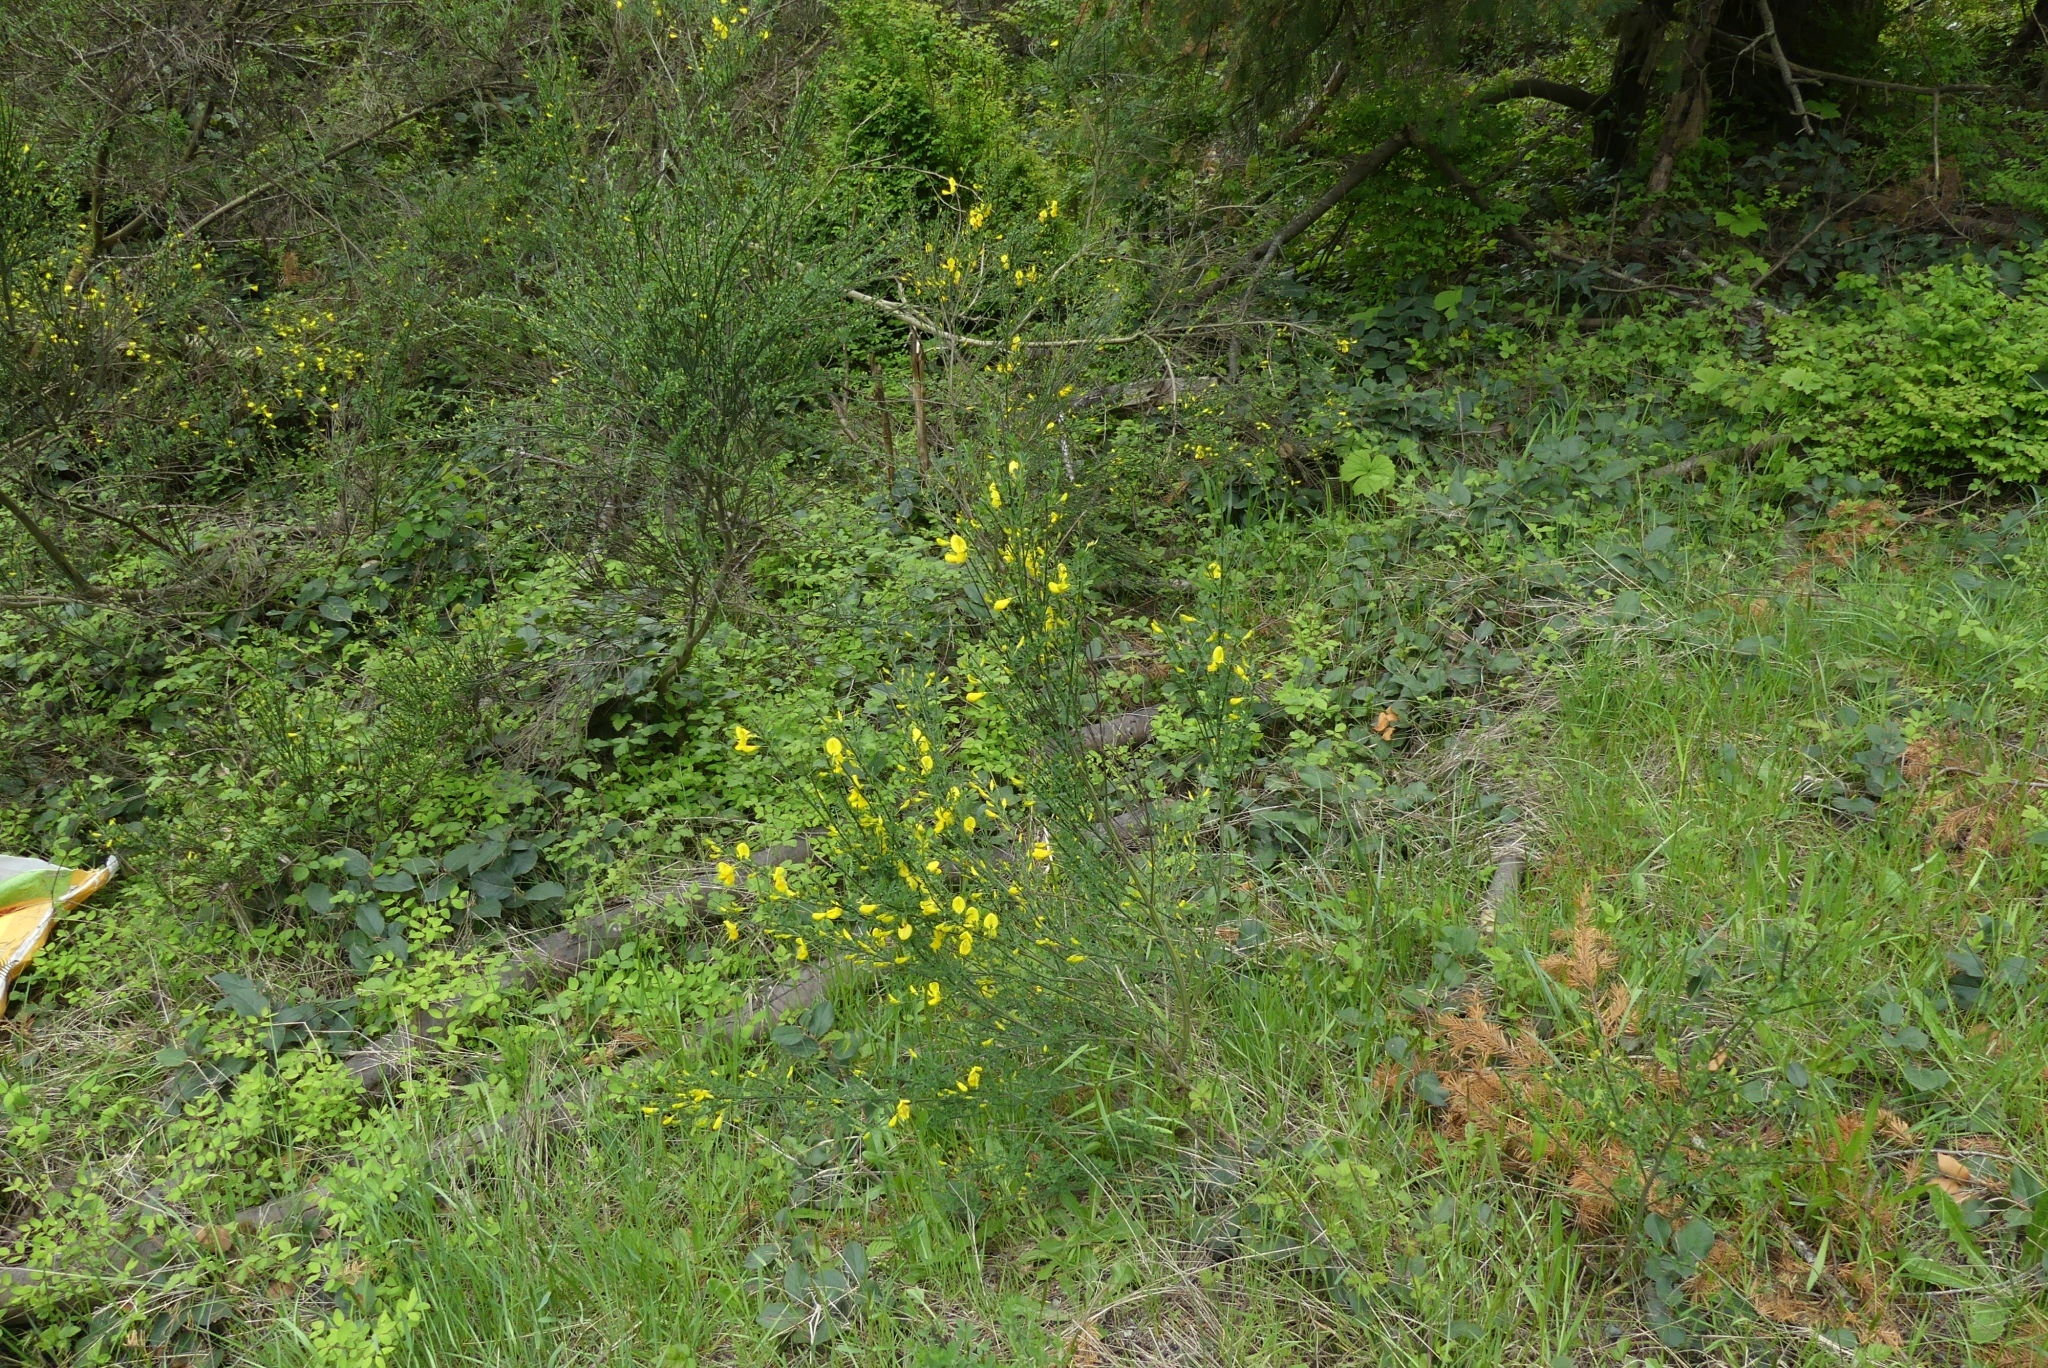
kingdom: Plantae
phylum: Tracheophyta
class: Magnoliopsida
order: Fabales
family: Fabaceae
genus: Cytisus
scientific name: Cytisus scoparius
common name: Scotch broom
